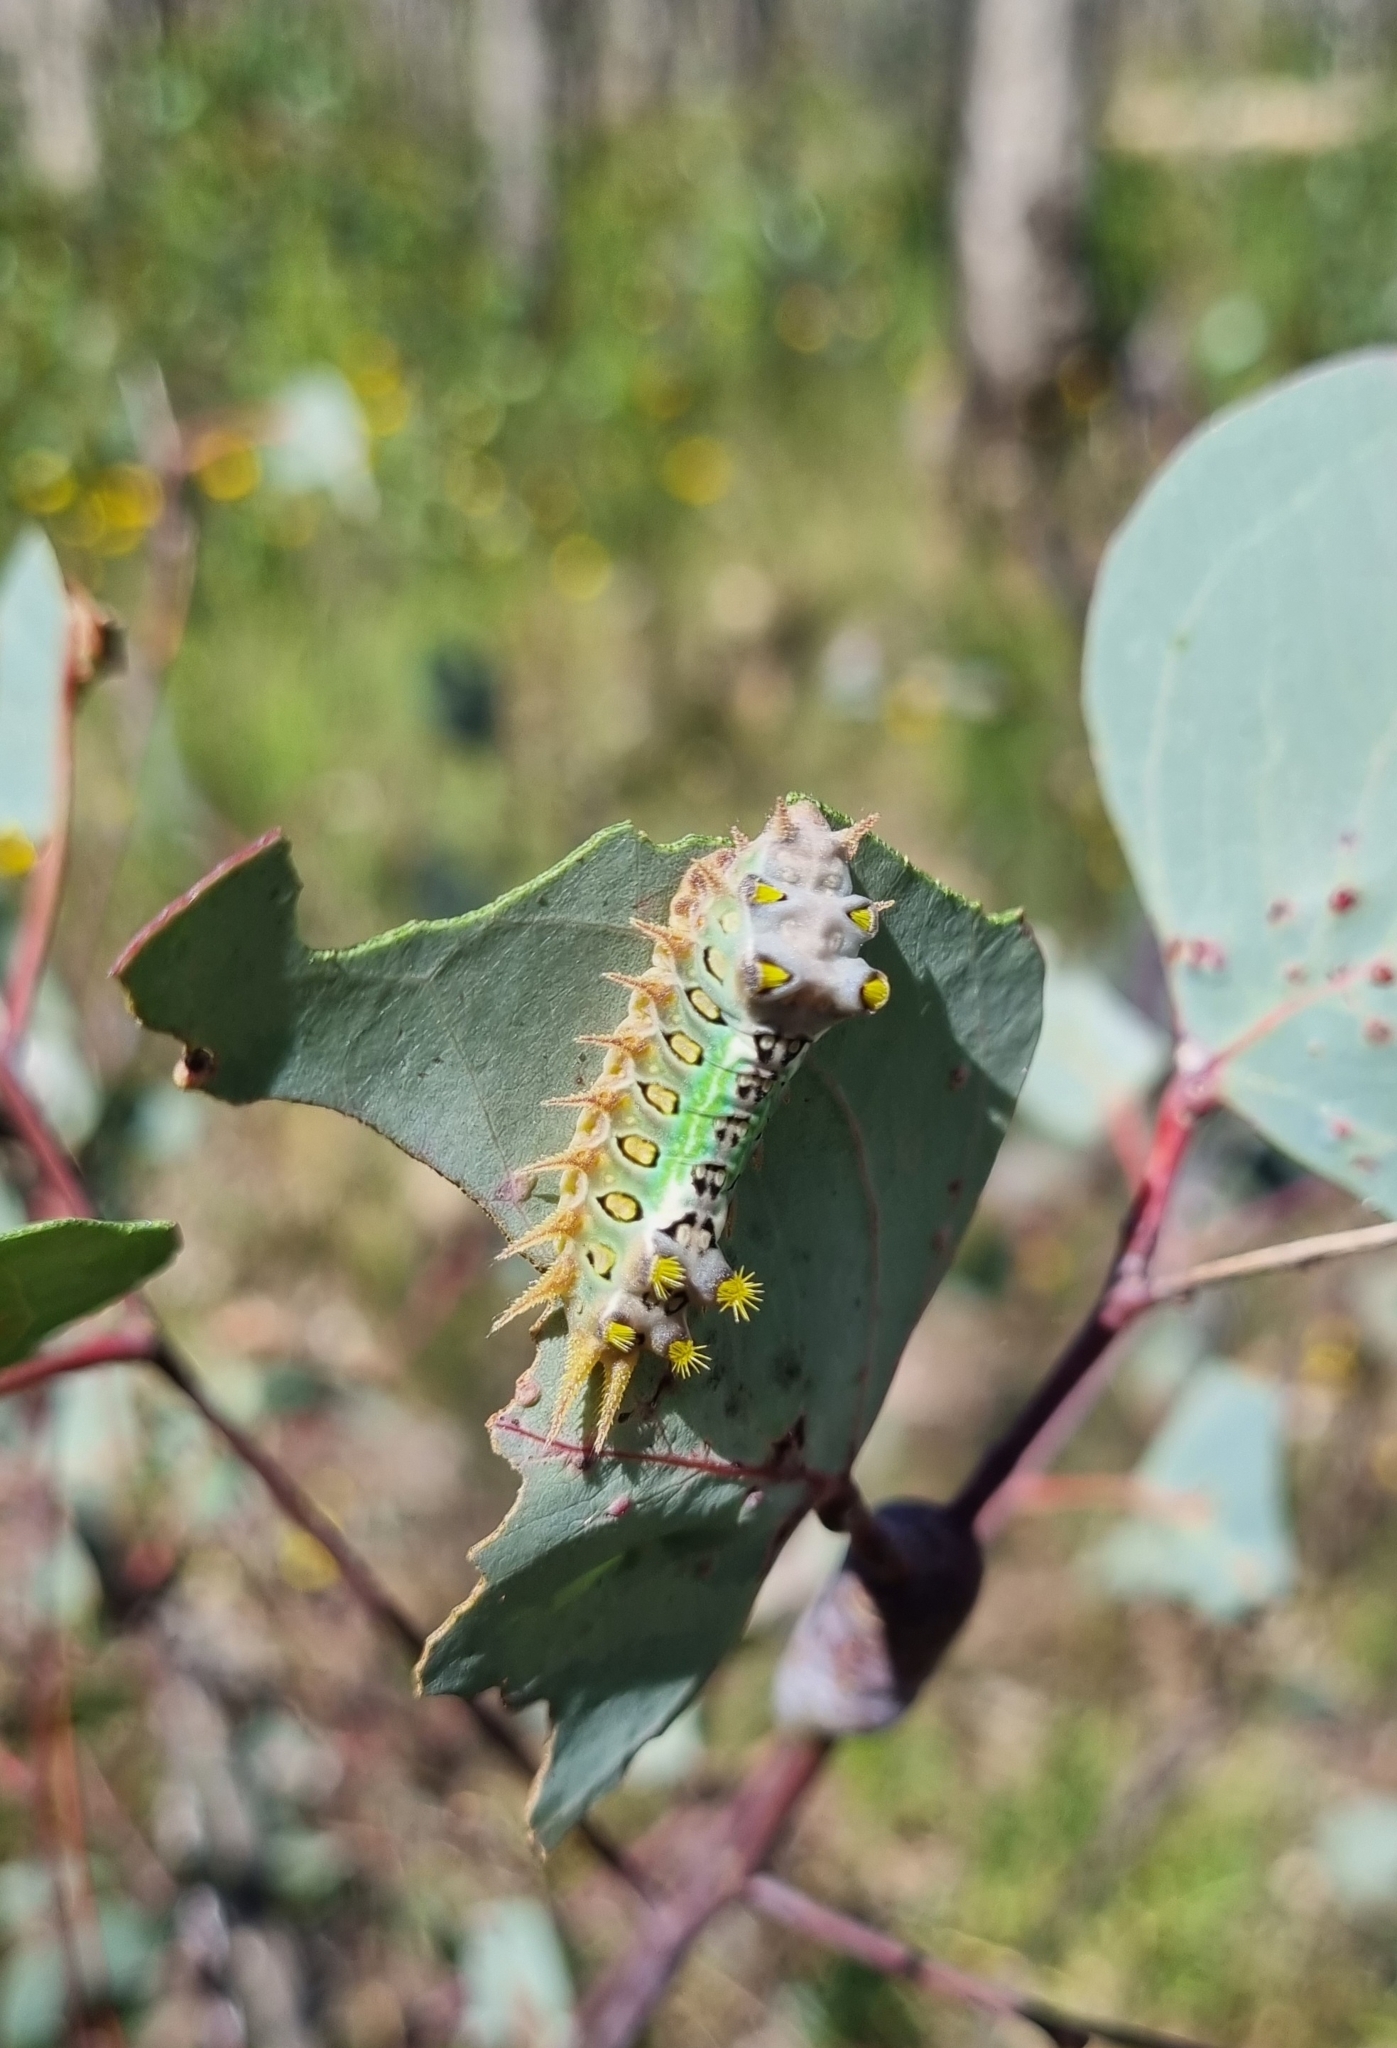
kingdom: Animalia
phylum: Arthropoda
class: Insecta
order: Lepidoptera
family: Limacodidae
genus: Doratifera
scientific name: Doratifera oxleyi
